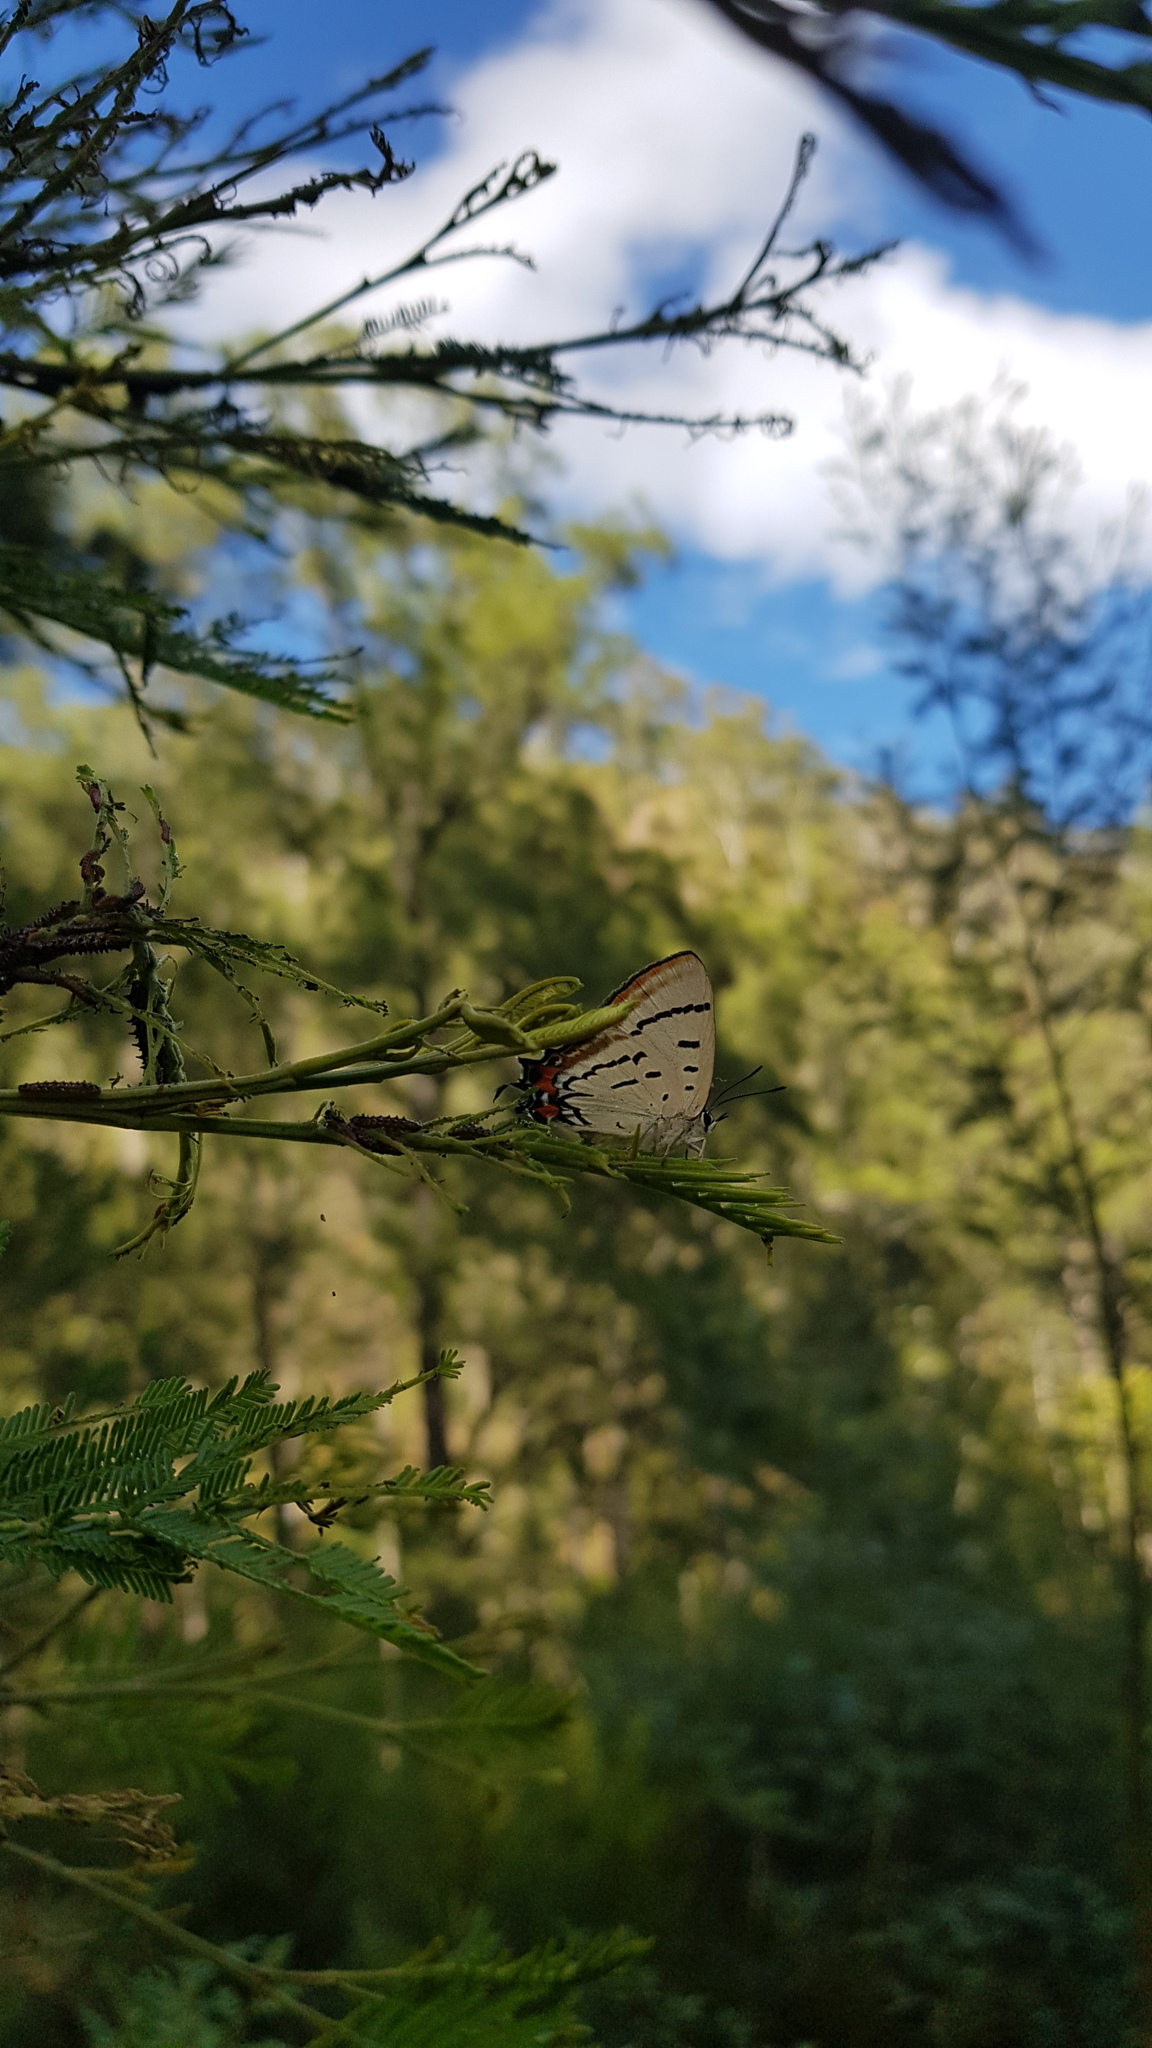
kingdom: Animalia
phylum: Arthropoda
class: Insecta
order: Lepidoptera
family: Lycaenidae
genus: Jalmenus
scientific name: Jalmenus evagoras
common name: Common imperial blue
